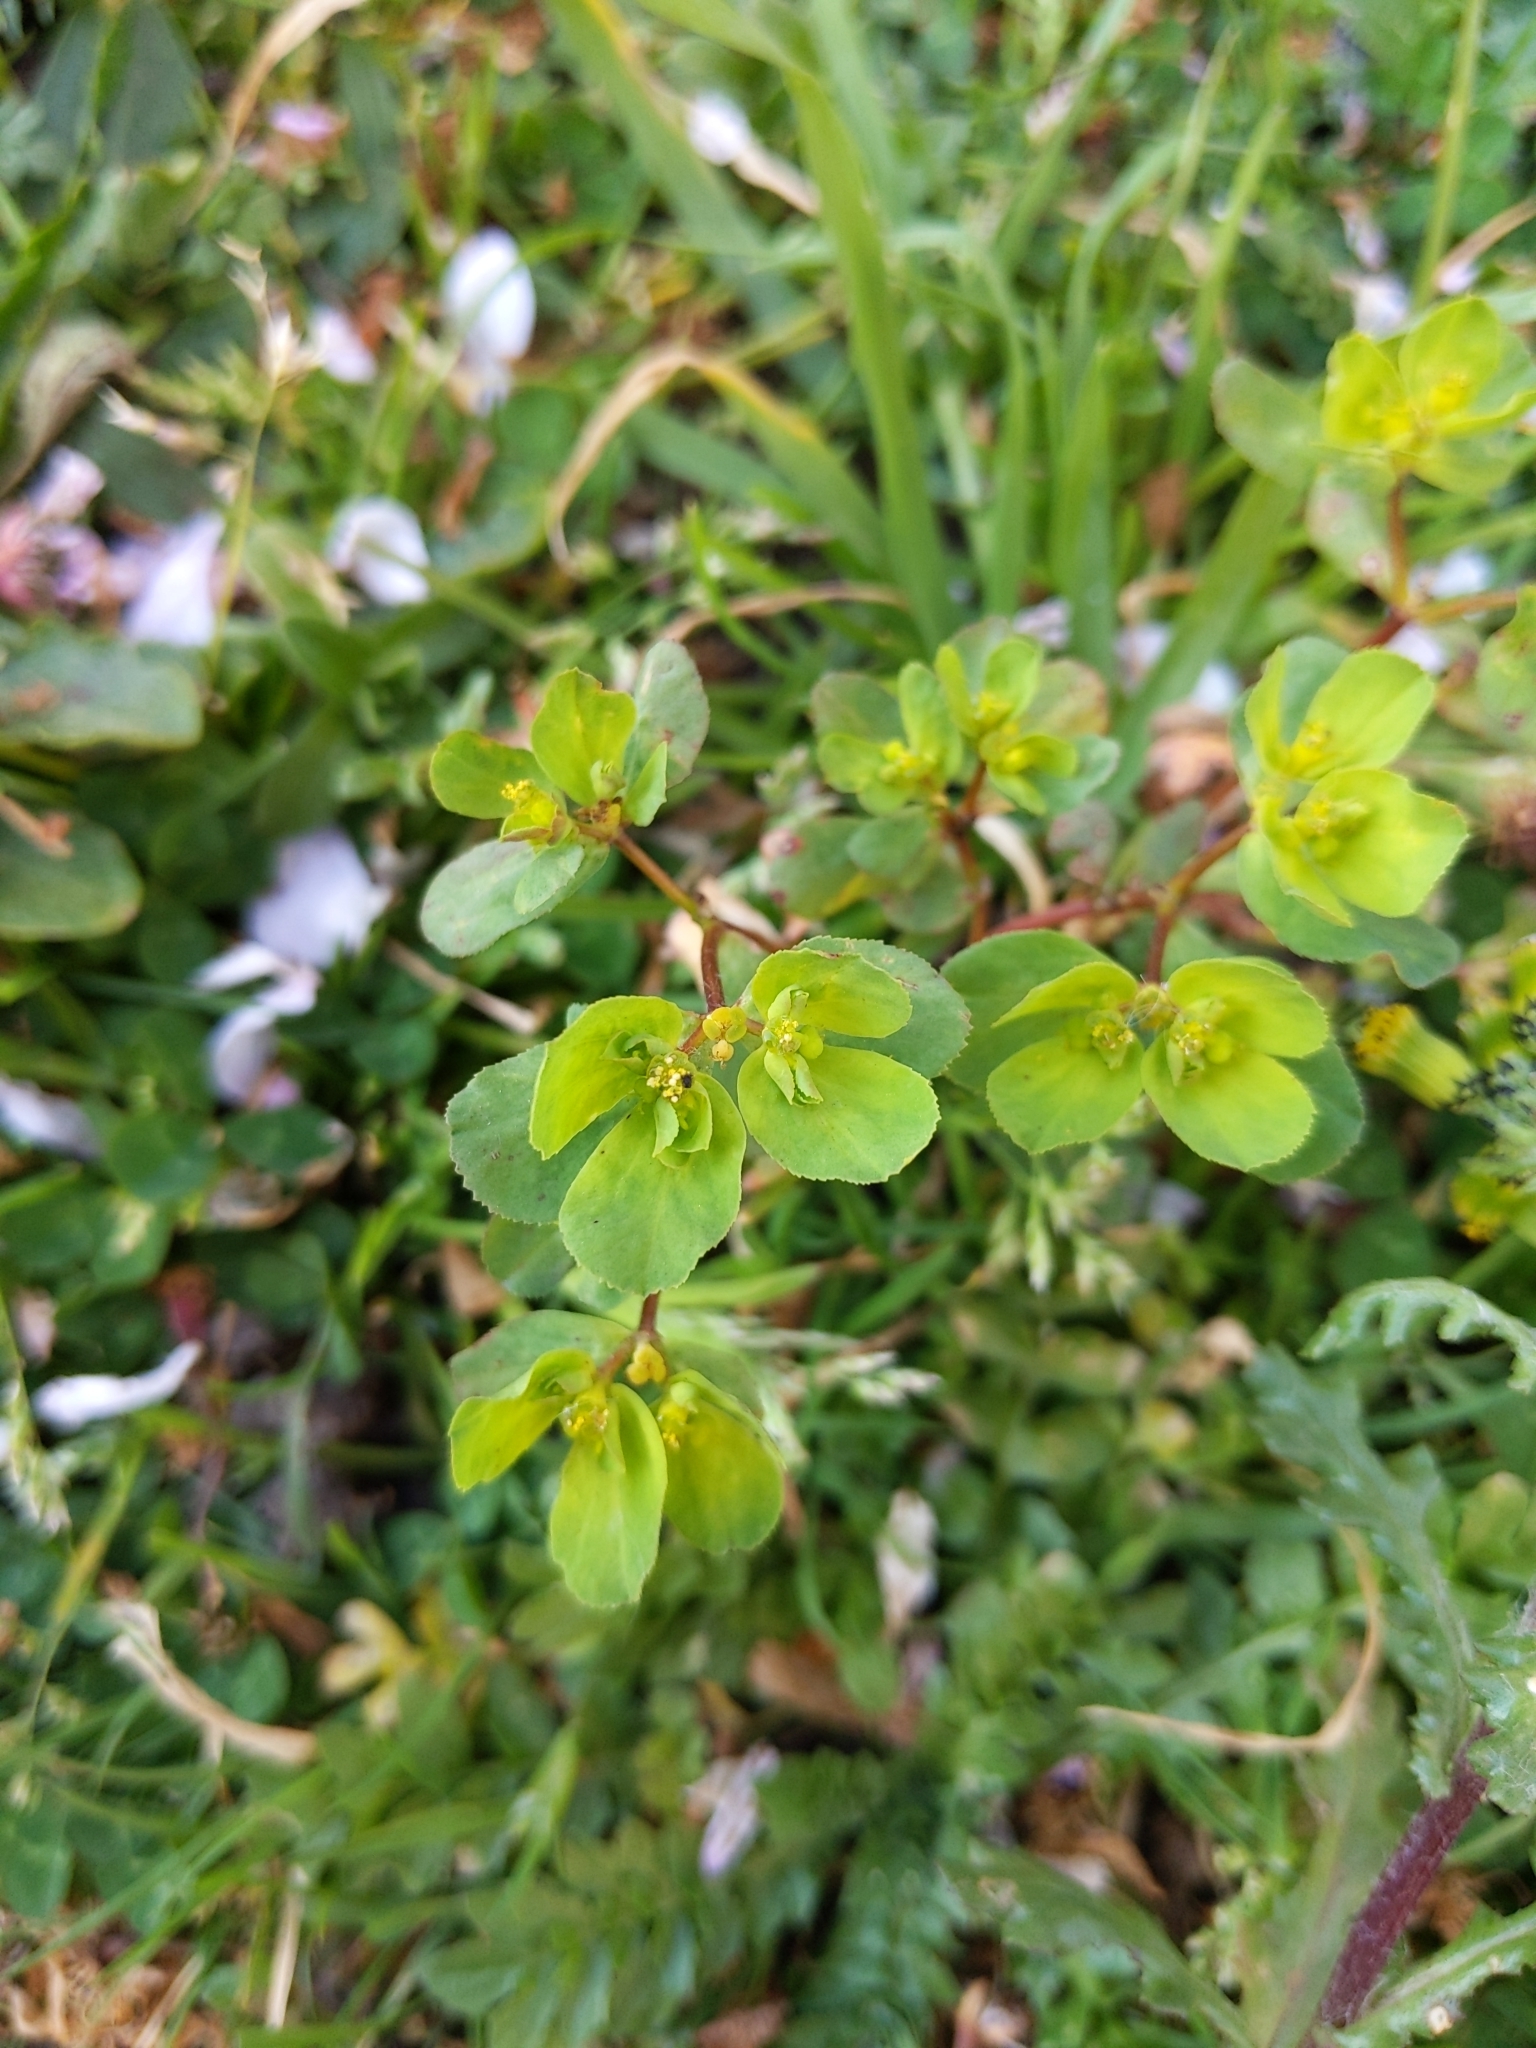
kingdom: Plantae
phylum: Tracheophyta
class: Magnoliopsida
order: Malpighiales
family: Euphorbiaceae
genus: Euphorbia
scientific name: Euphorbia helioscopia
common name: Sun spurge
